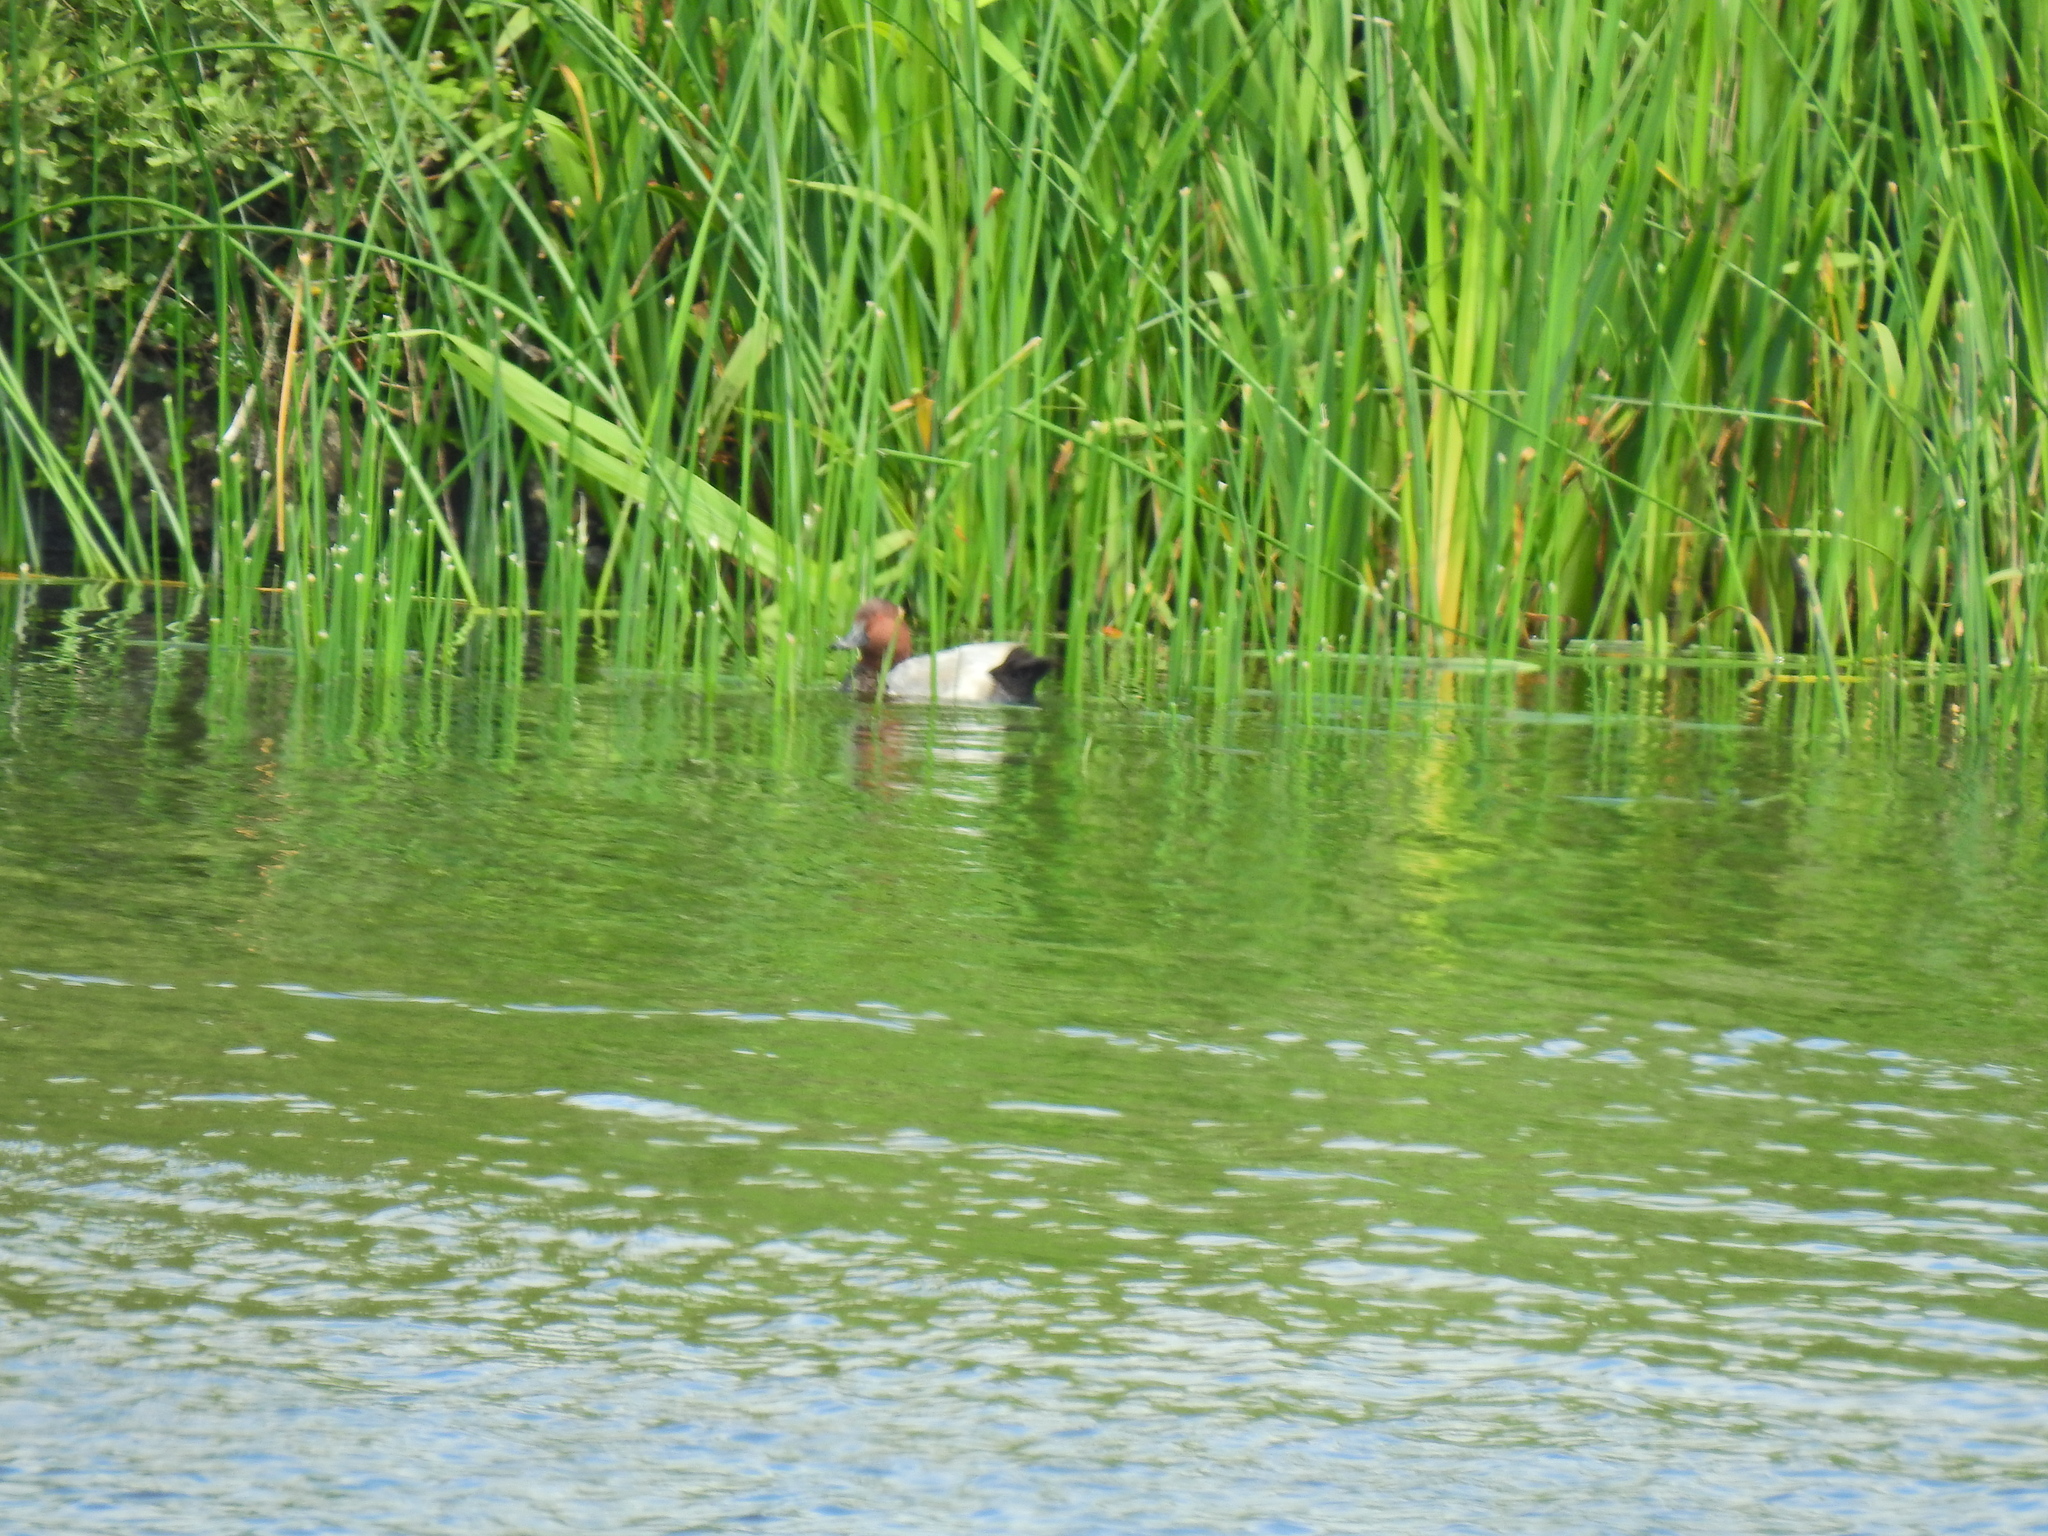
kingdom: Animalia
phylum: Chordata
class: Aves
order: Anseriformes
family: Anatidae
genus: Aythya
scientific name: Aythya ferina
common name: Common pochard
